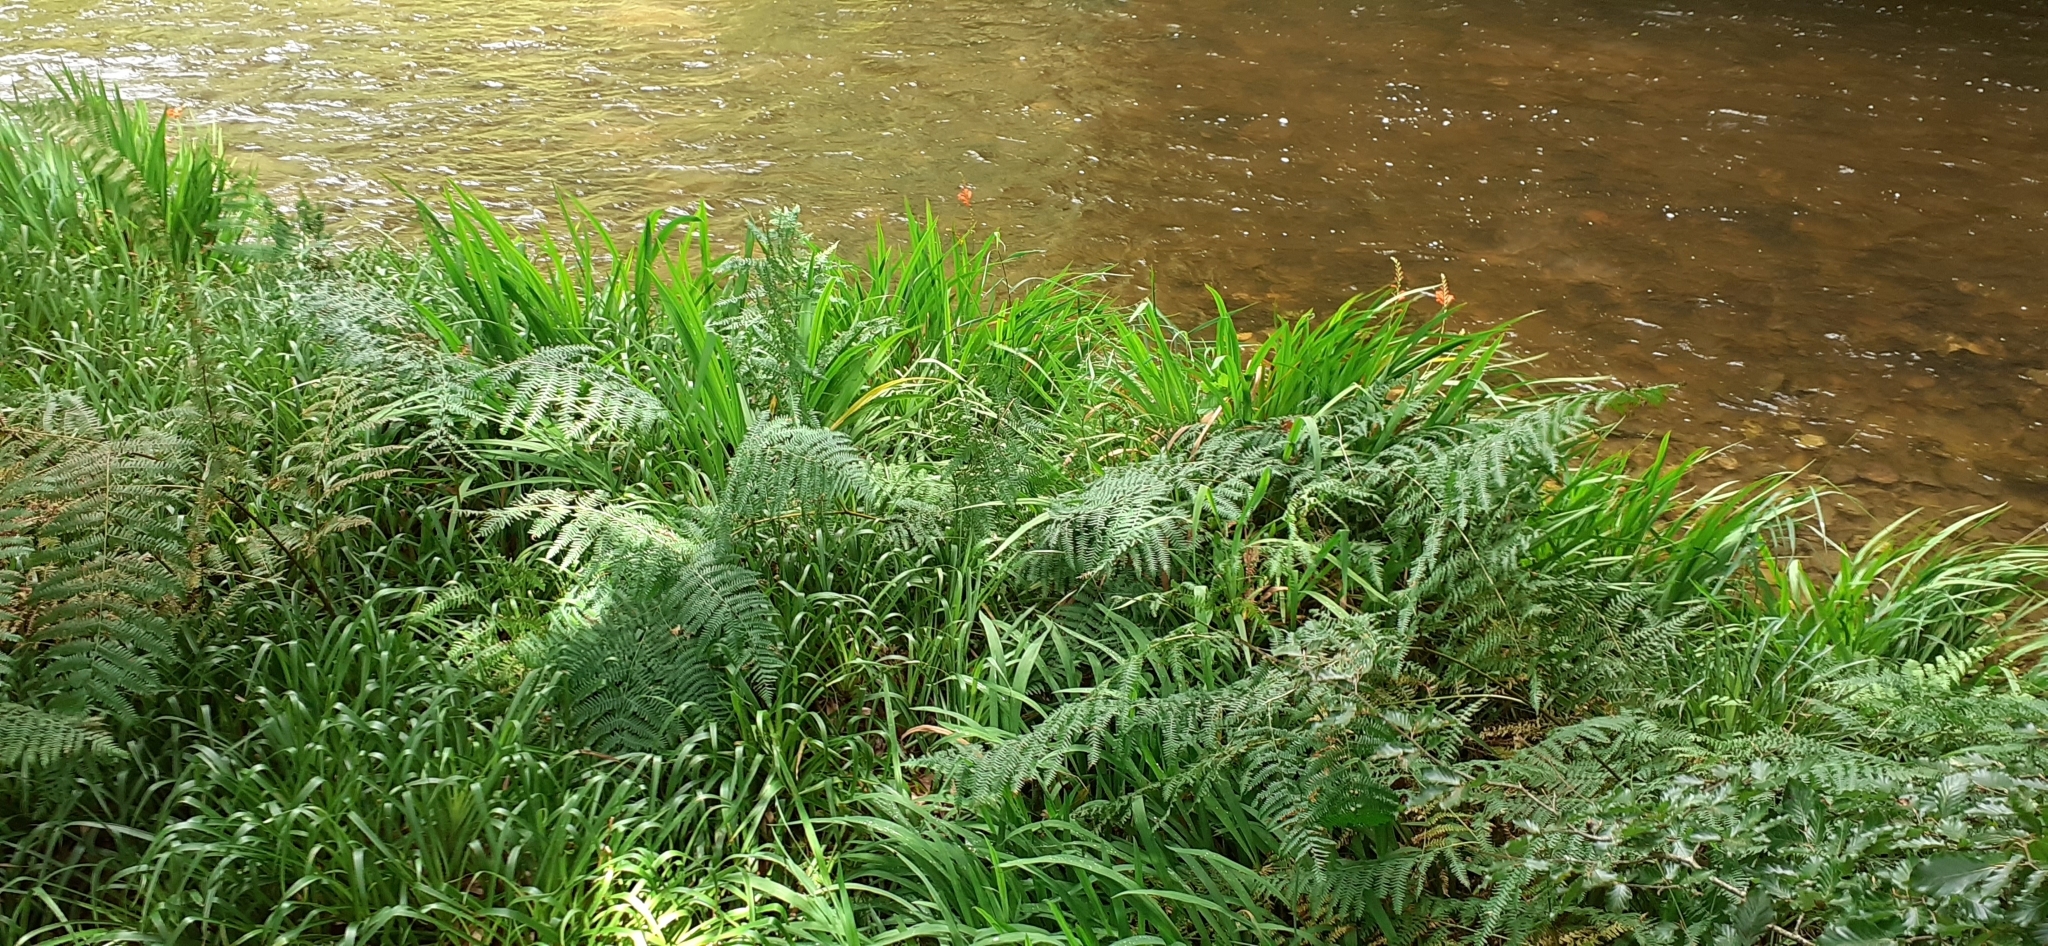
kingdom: Plantae
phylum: Tracheophyta
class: Liliopsida
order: Asparagales
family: Iridaceae
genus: Crocosmia
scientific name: Crocosmia crocosmiiflora
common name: Montbretia
